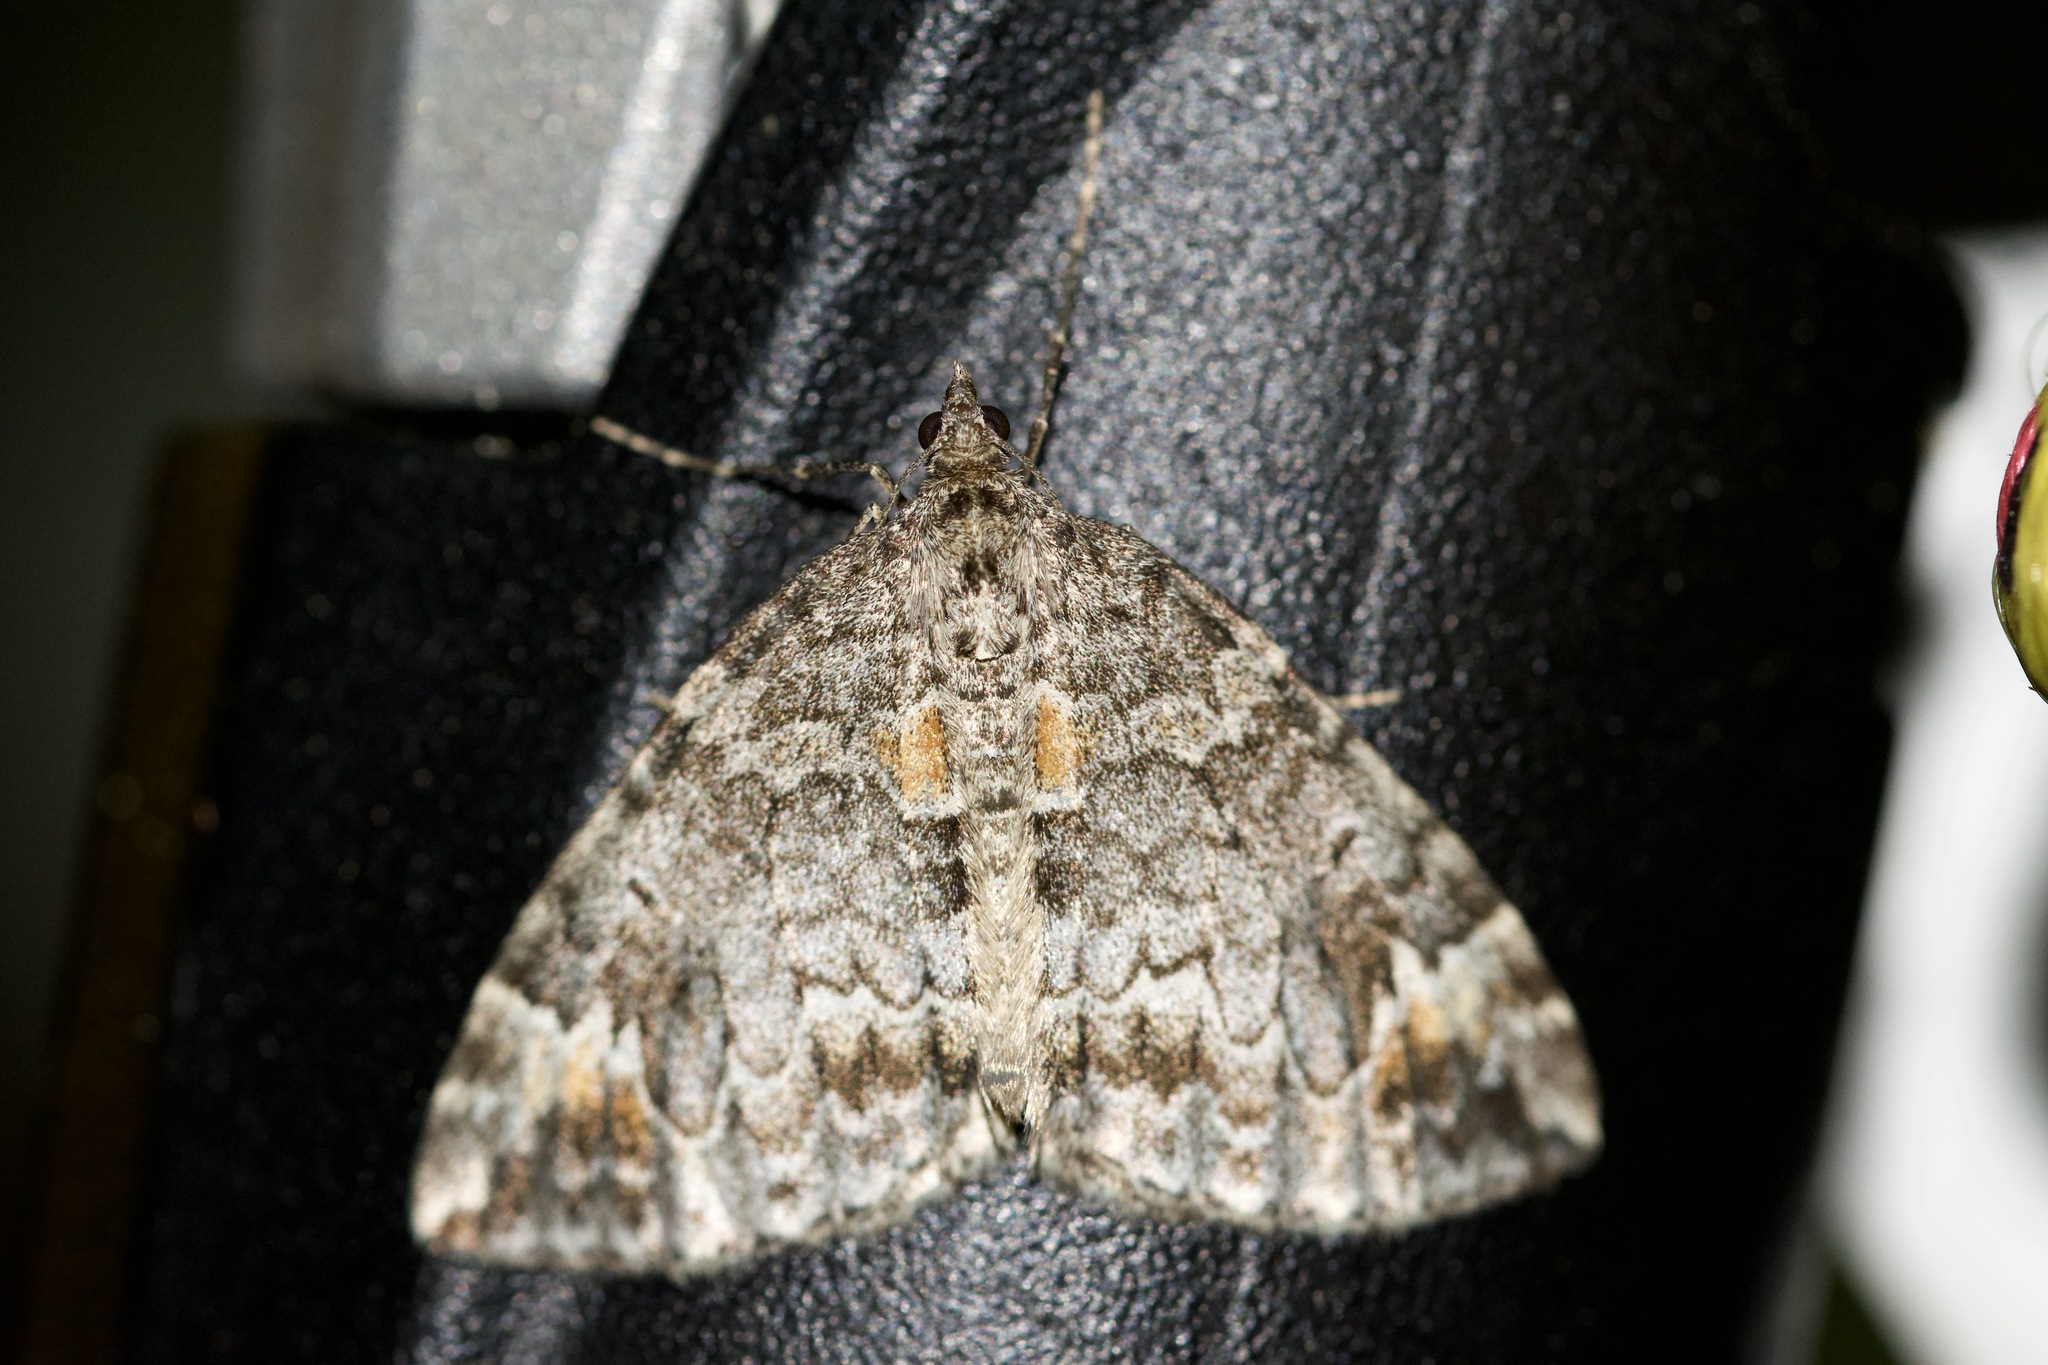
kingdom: Animalia
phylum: Arthropoda
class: Insecta
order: Lepidoptera
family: Geometridae
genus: Dysstroma
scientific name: Dysstroma truncata
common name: Common marbled carpet
